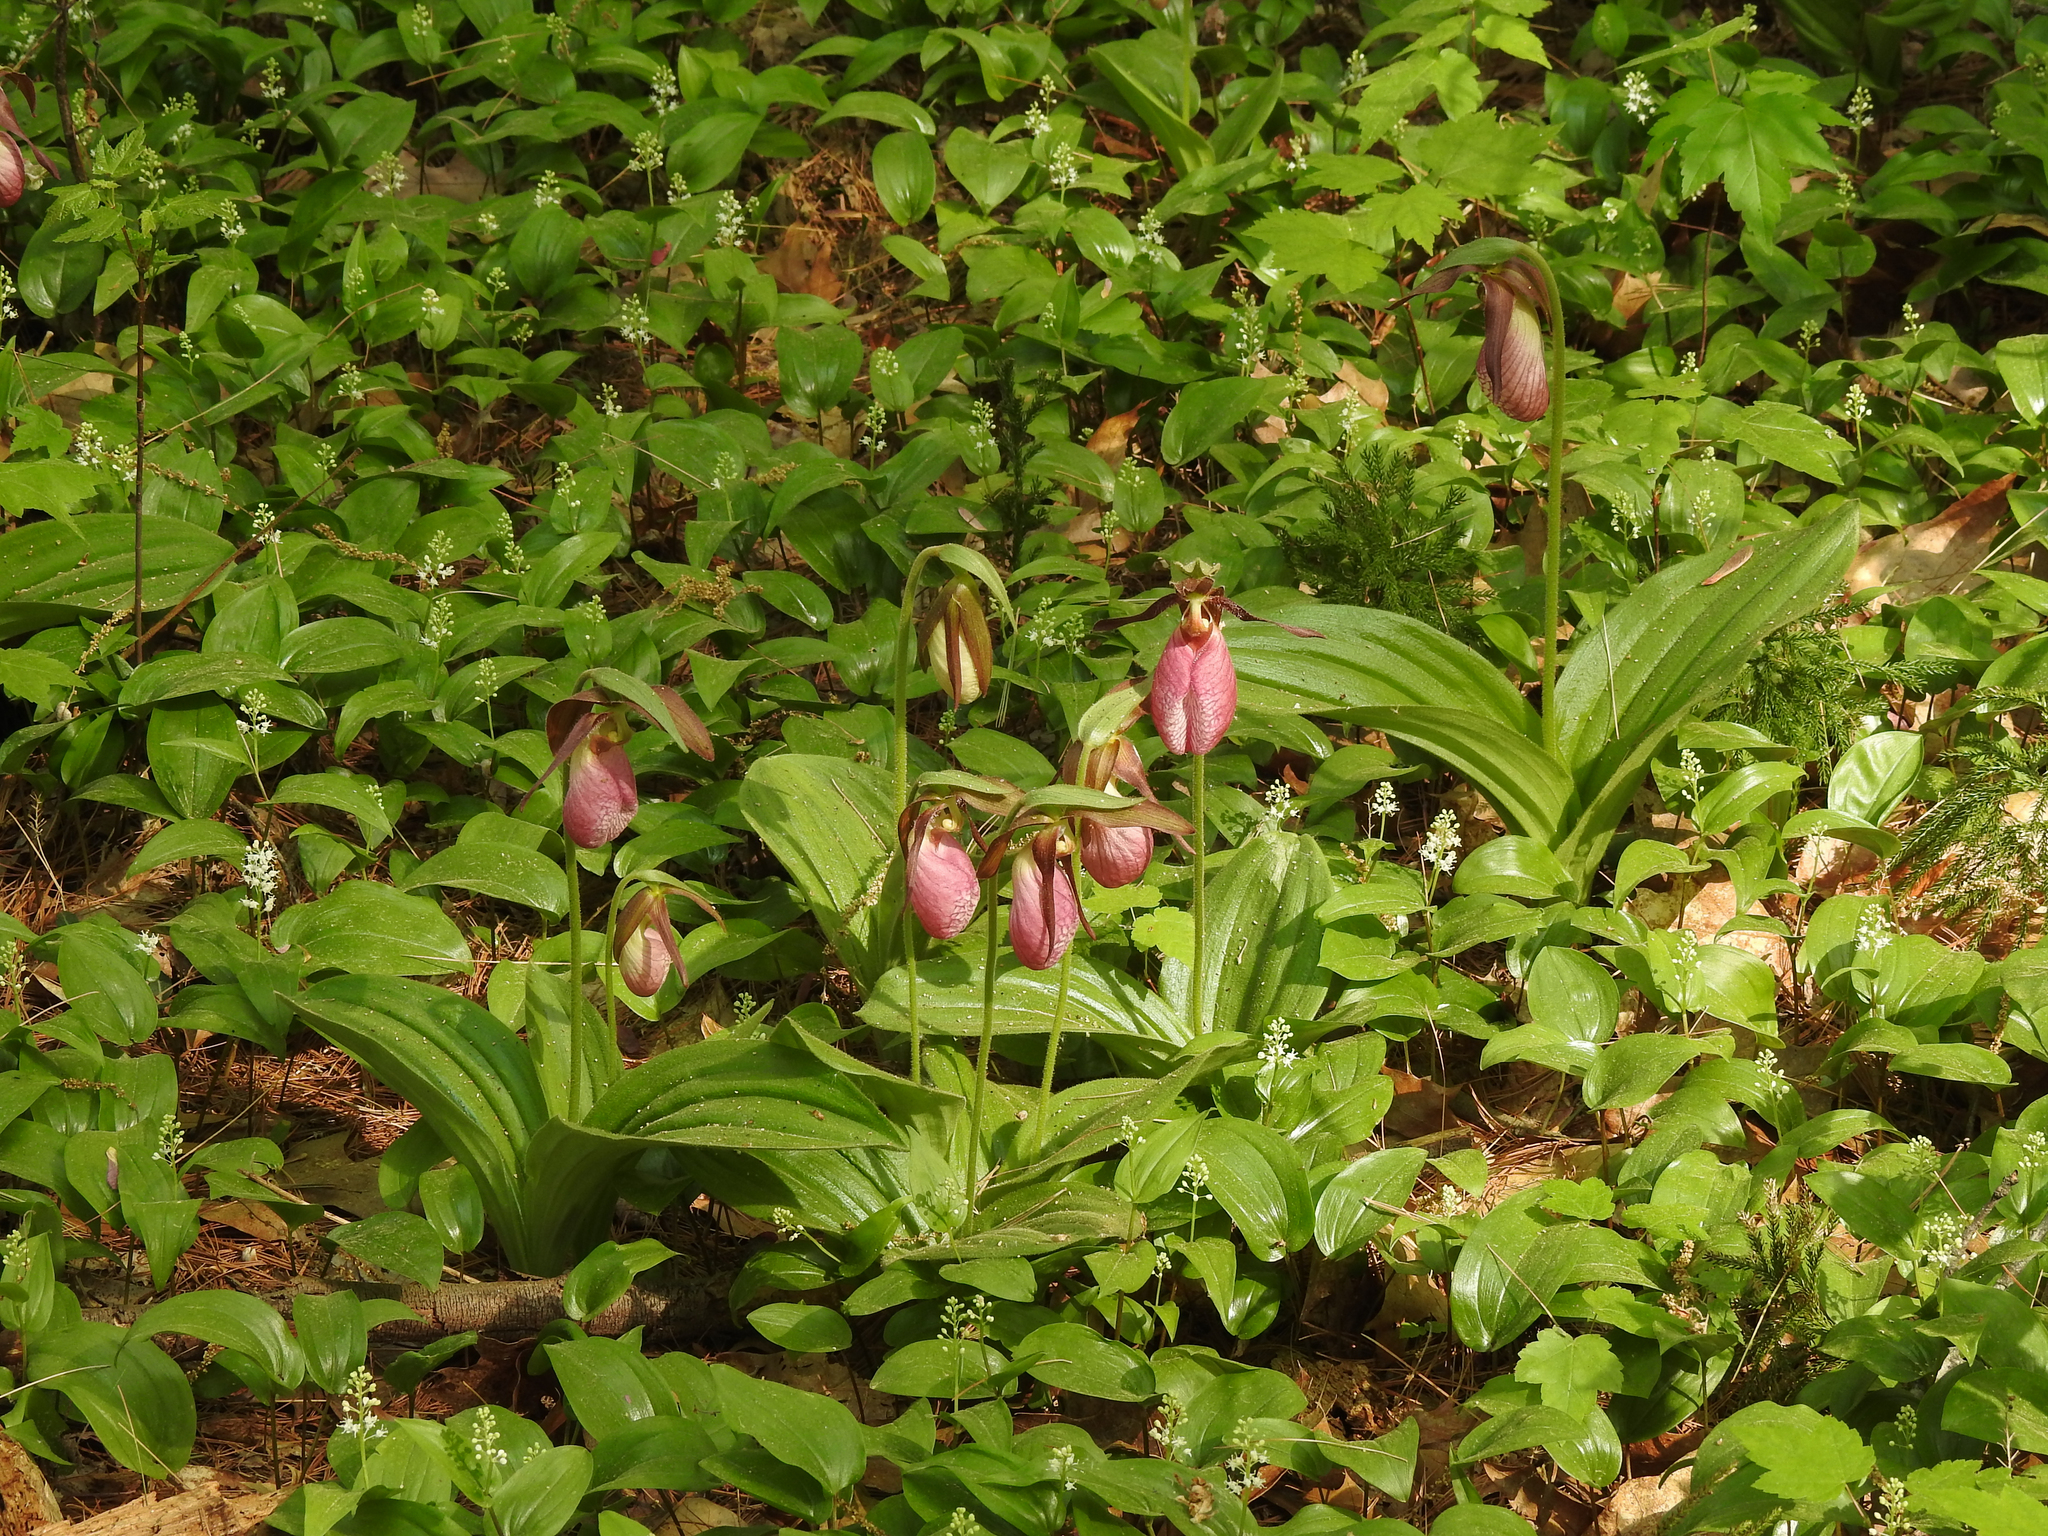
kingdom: Plantae
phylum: Tracheophyta
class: Liliopsida
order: Asparagales
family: Orchidaceae
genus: Cypripedium
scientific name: Cypripedium acaule
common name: Pink lady's-slipper
